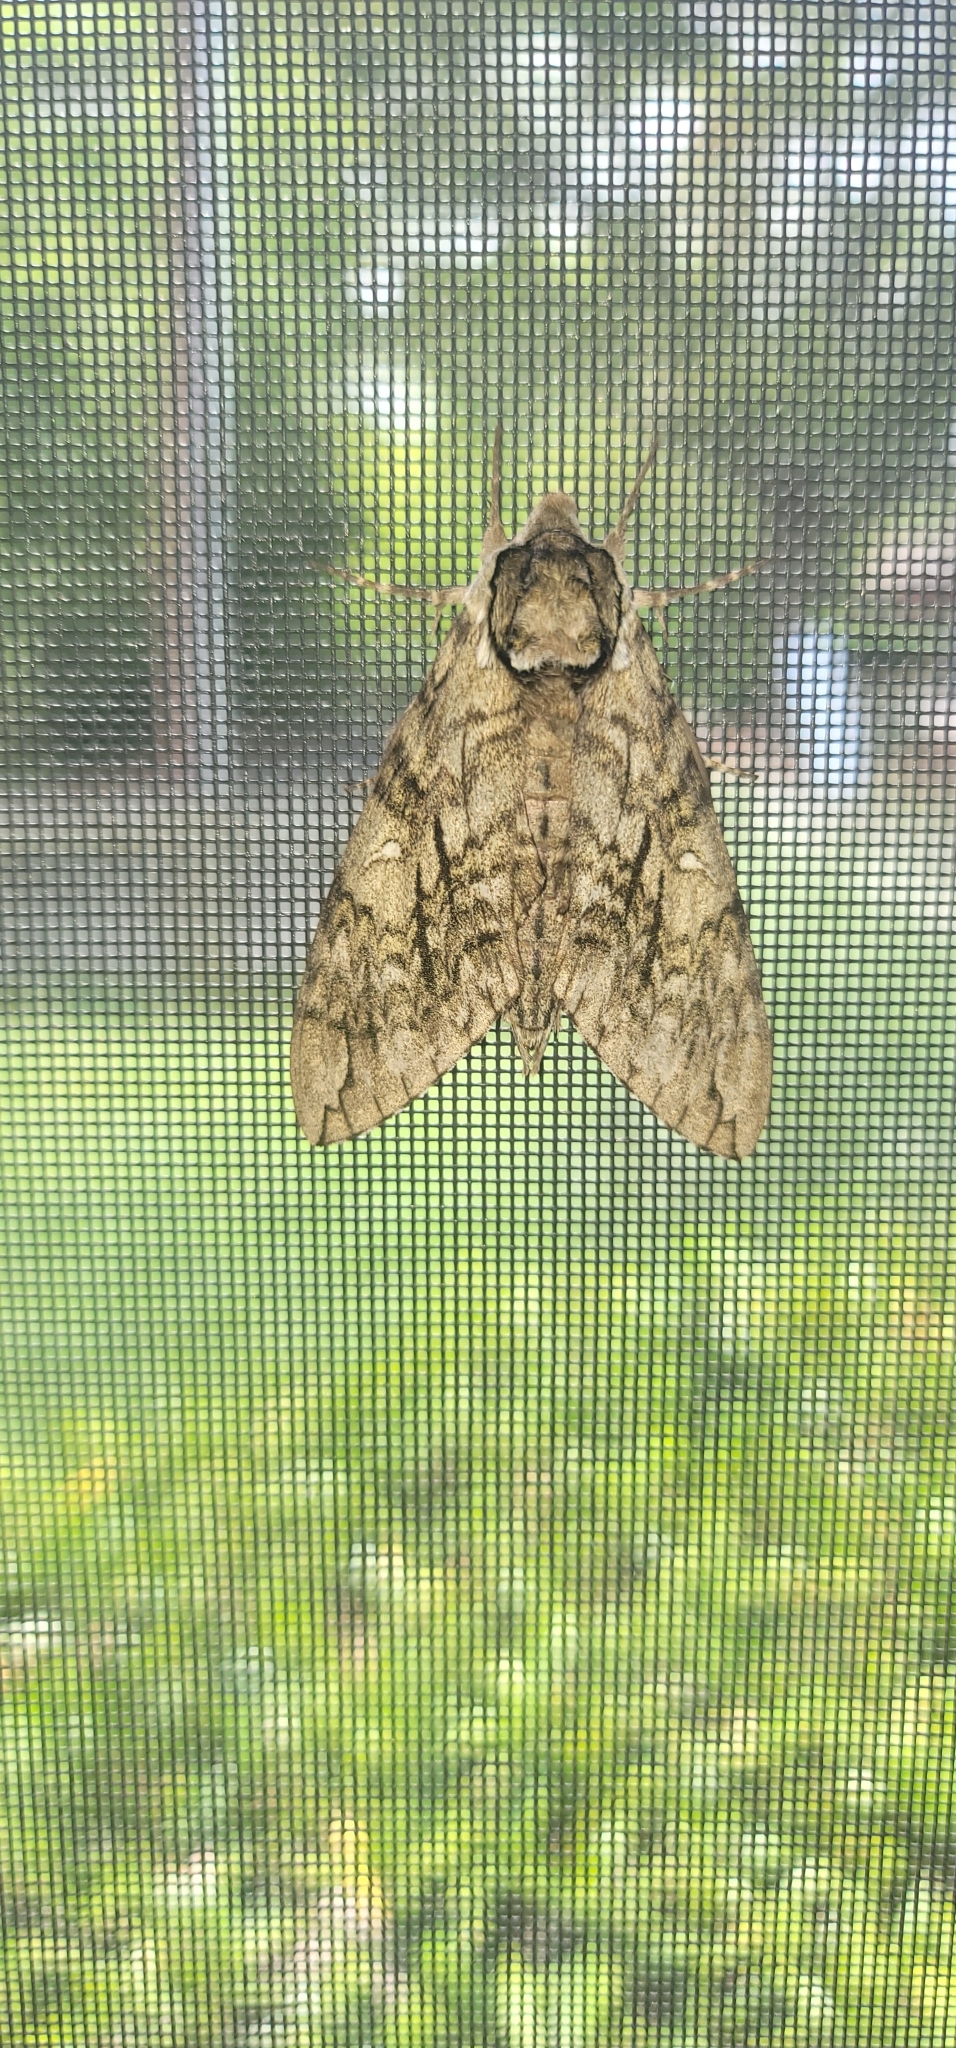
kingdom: Animalia
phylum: Arthropoda
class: Insecta
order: Lepidoptera
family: Sphingidae
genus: Ceratomia
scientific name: Ceratomia undulosa
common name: Waved sphinx
